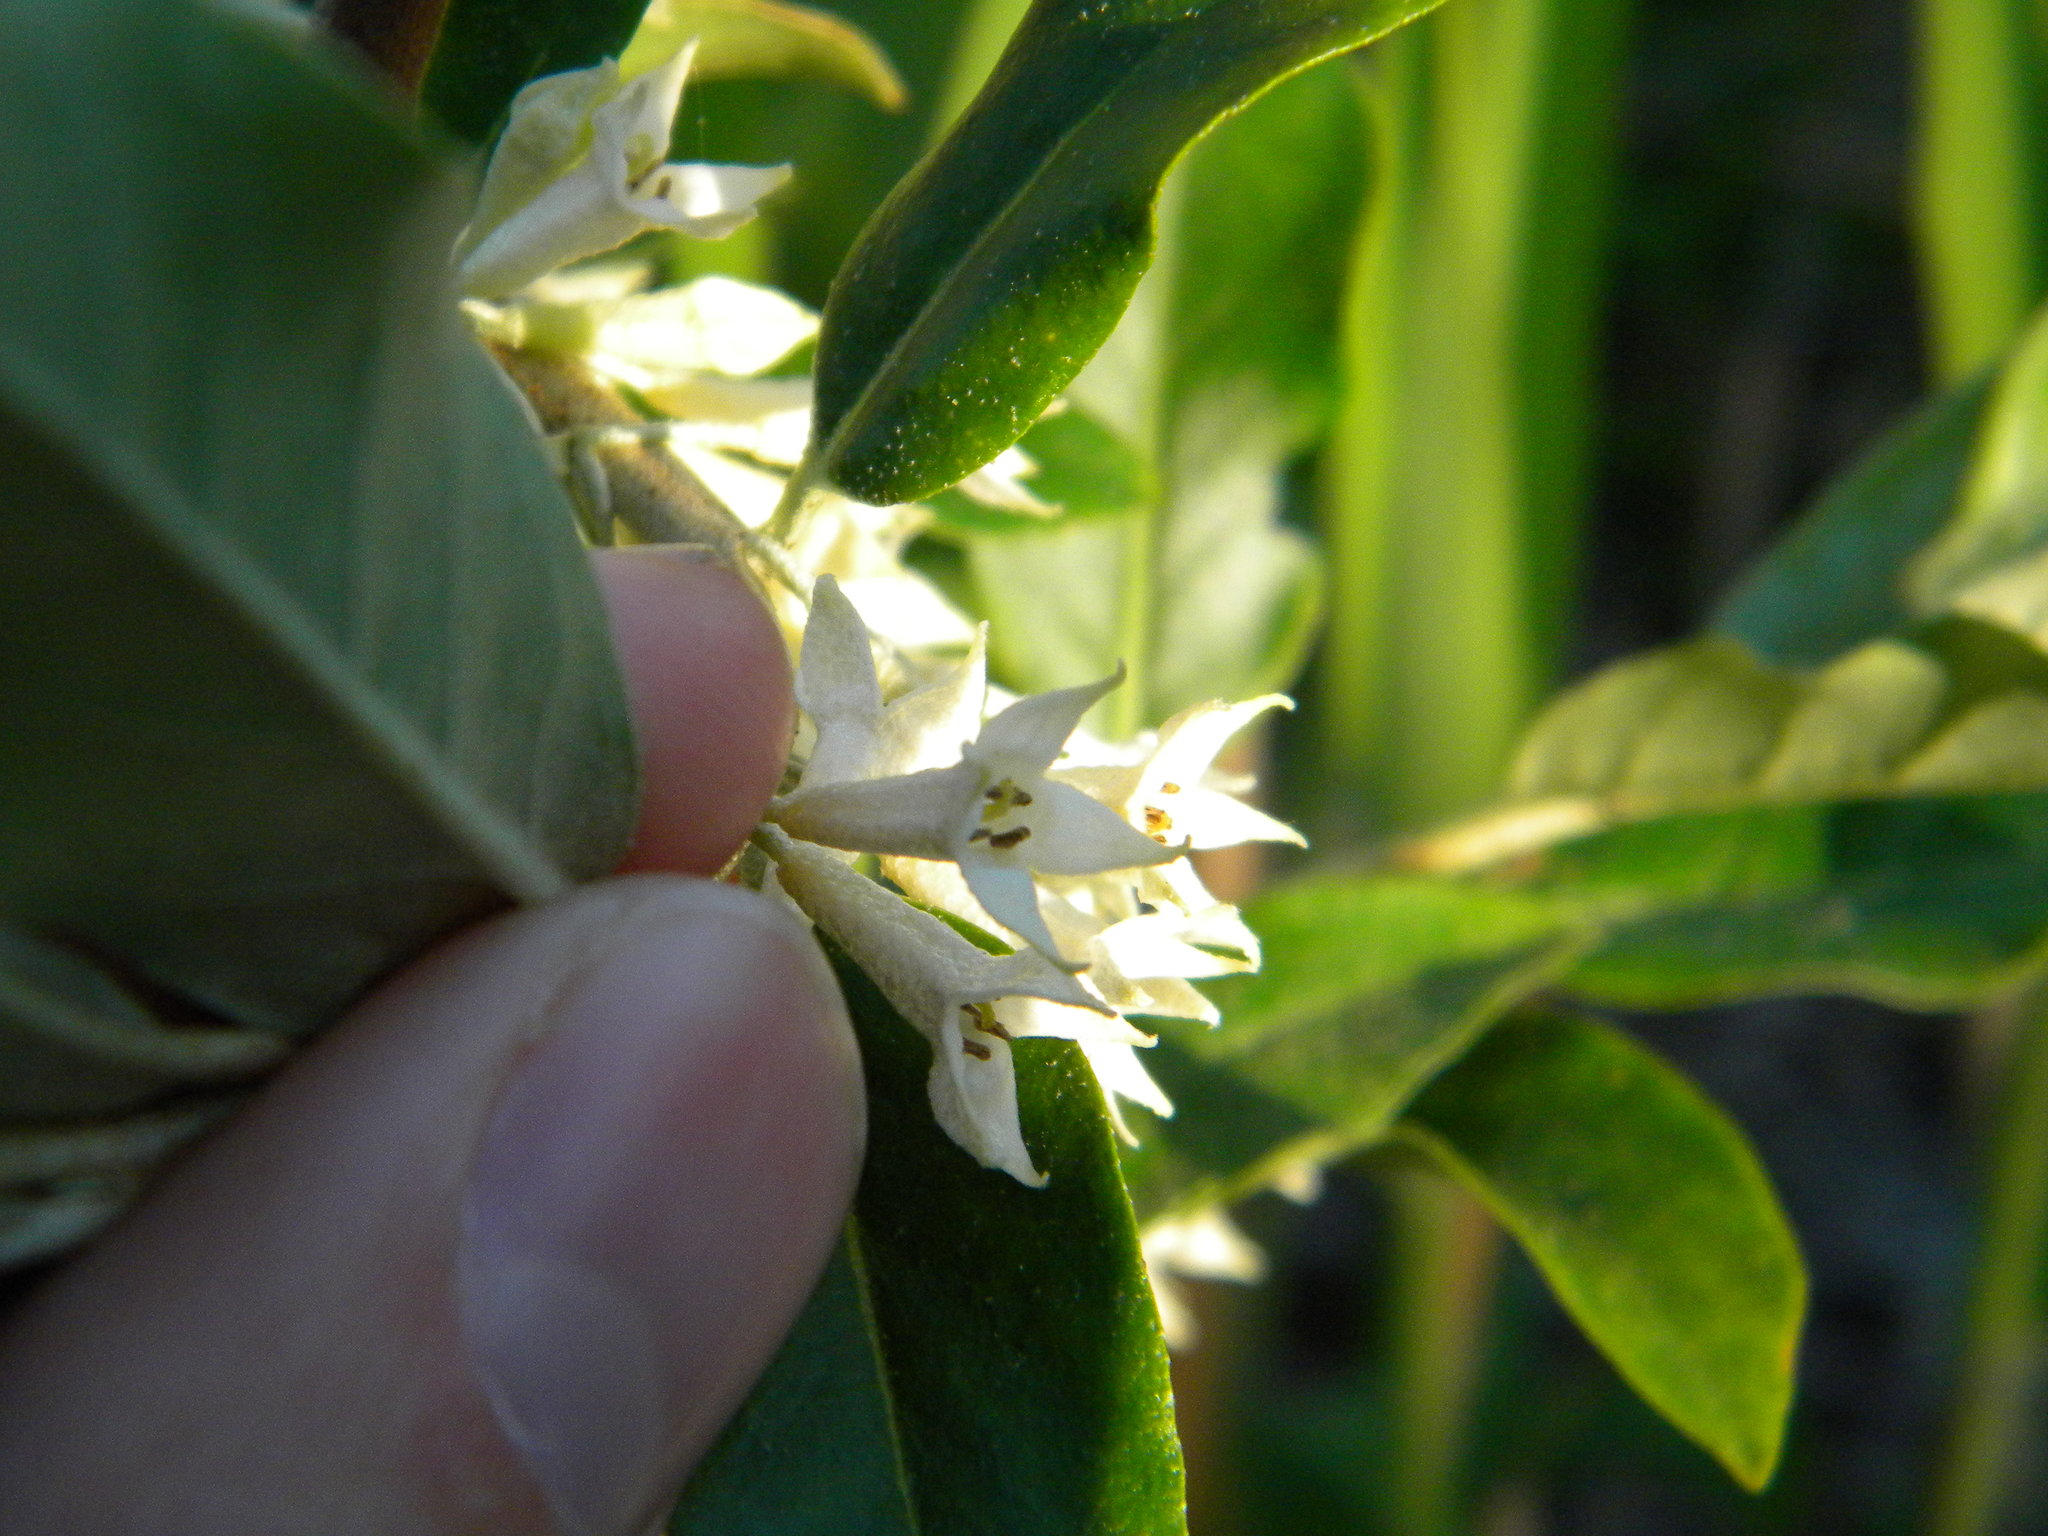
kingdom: Plantae
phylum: Tracheophyta
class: Magnoliopsida
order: Rosales
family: Elaeagnaceae
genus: Elaeagnus
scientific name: Elaeagnus umbellata
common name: Autumn olive
